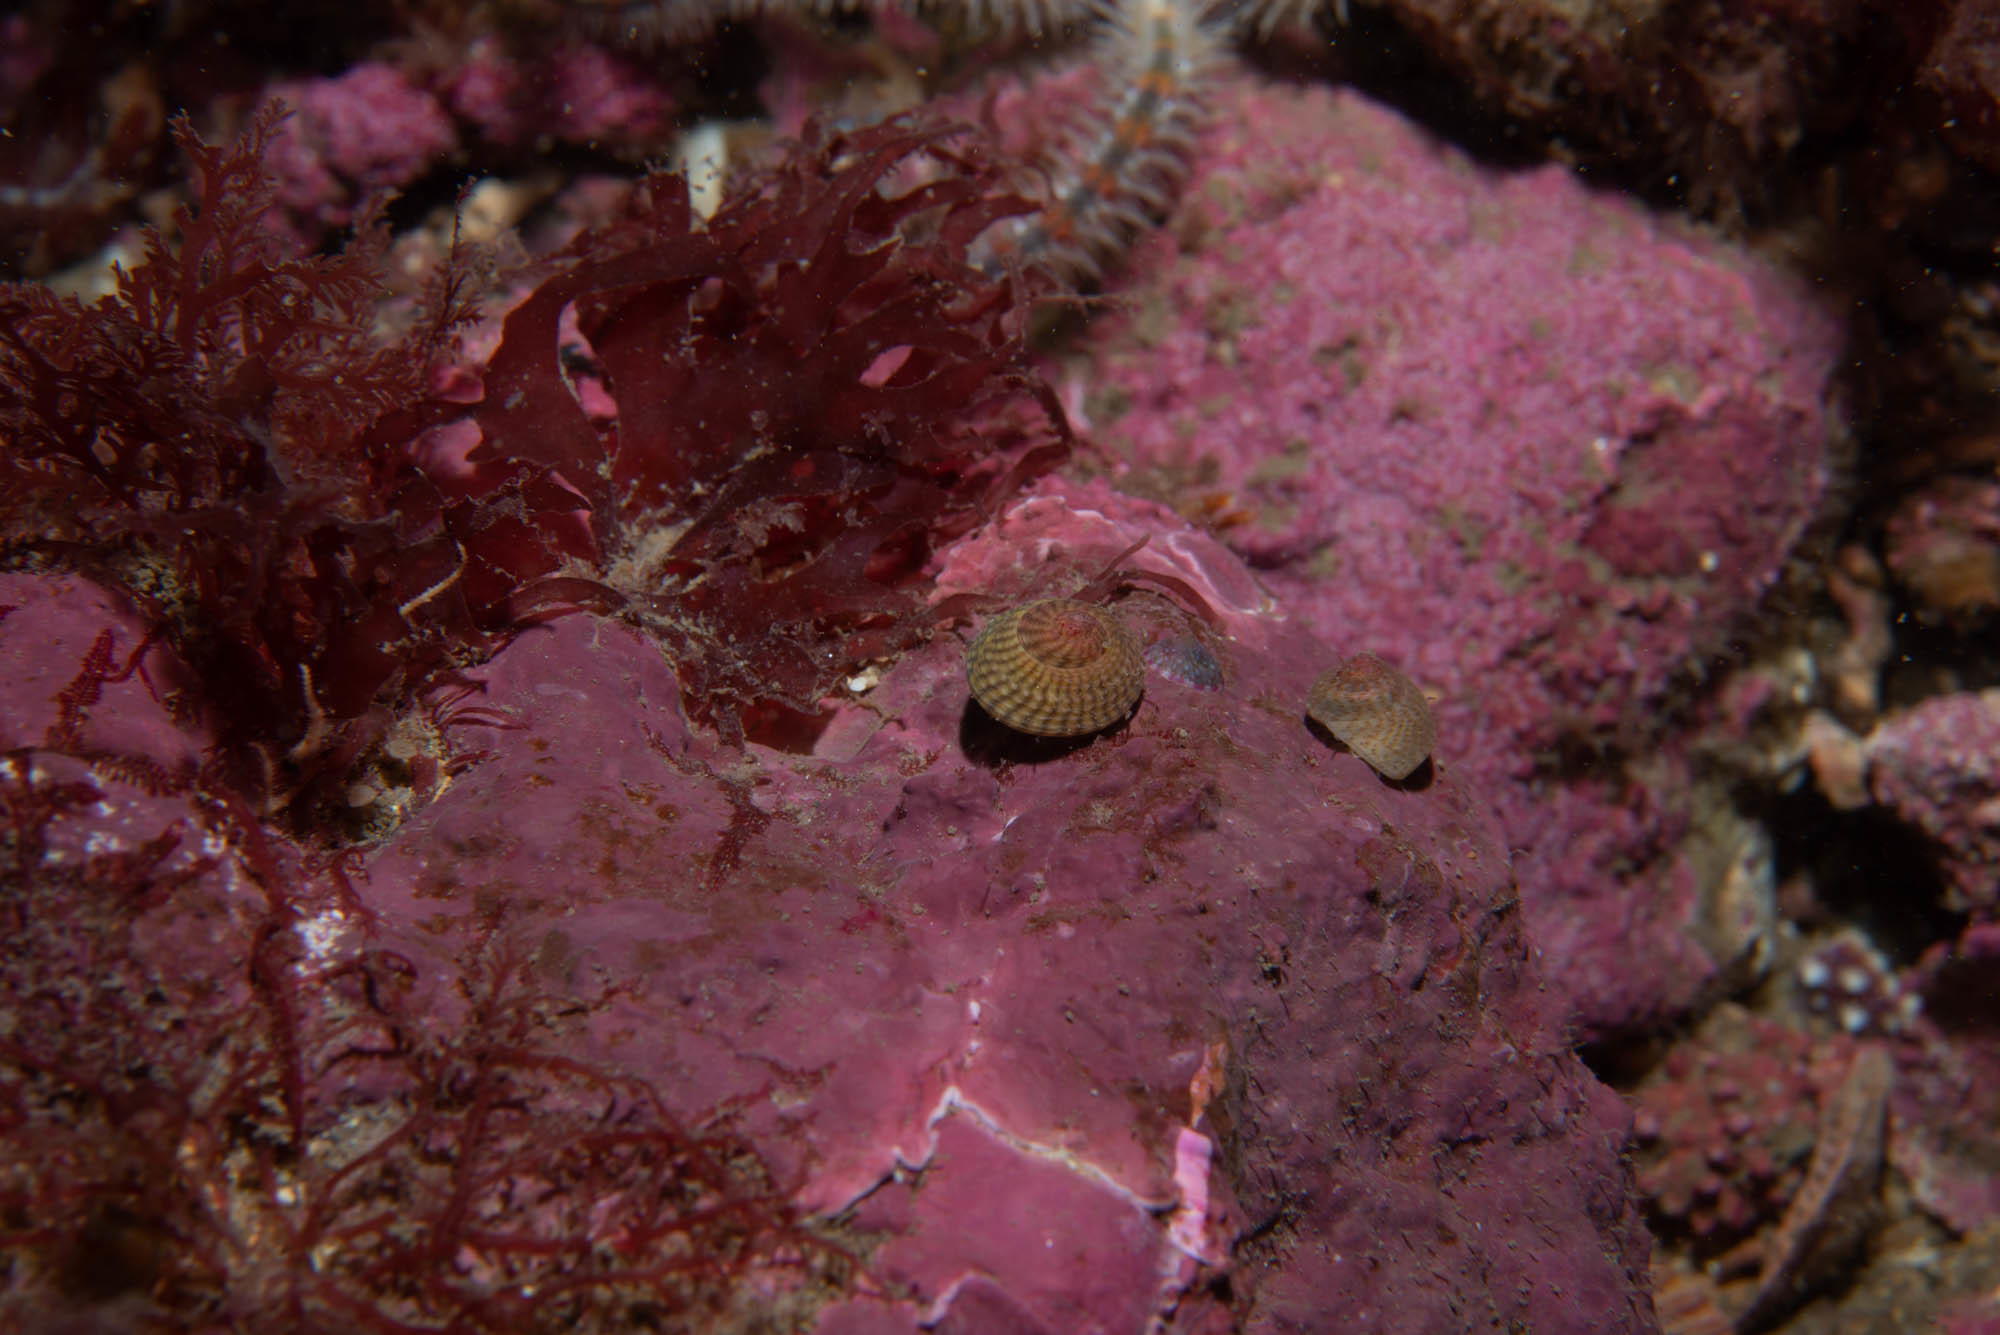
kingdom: Animalia
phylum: Mollusca
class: Gastropoda
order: Trochida
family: Trochidae
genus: Steromphala
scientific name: Steromphala tumida
